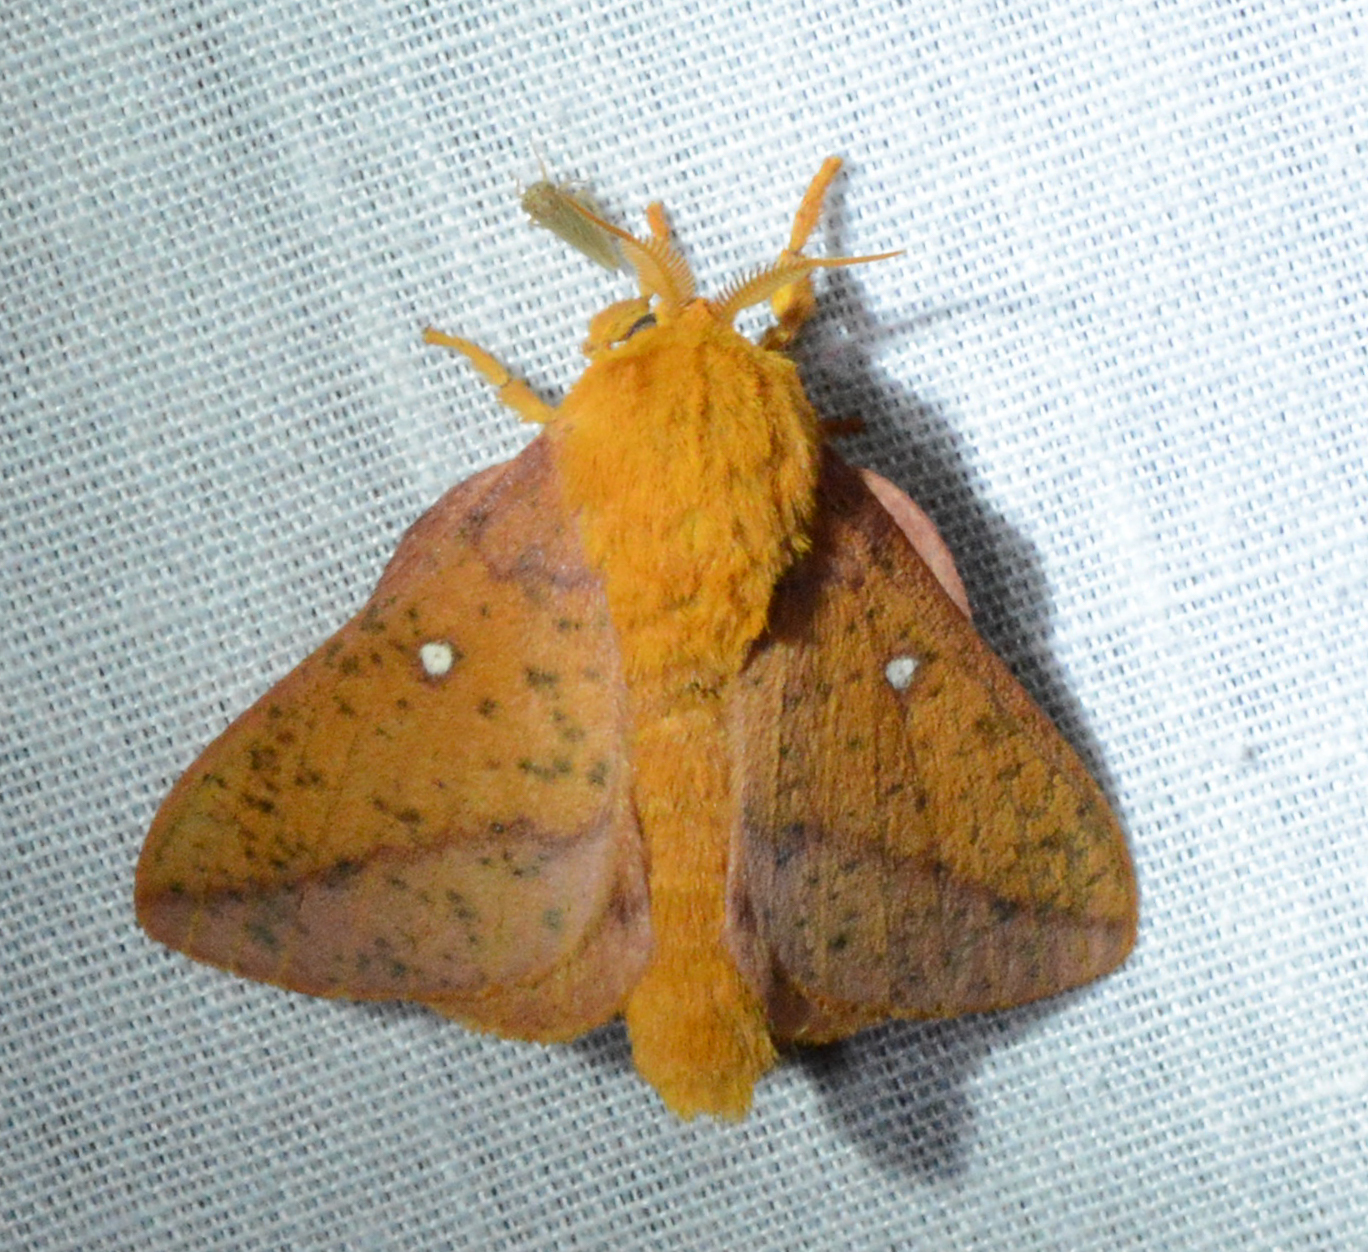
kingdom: Animalia
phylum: Arthropoda
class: Insecta
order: Lepidoptera
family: Saturniidae
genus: Anisota
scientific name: Anisota stigma
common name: Spiny oakworm moth
